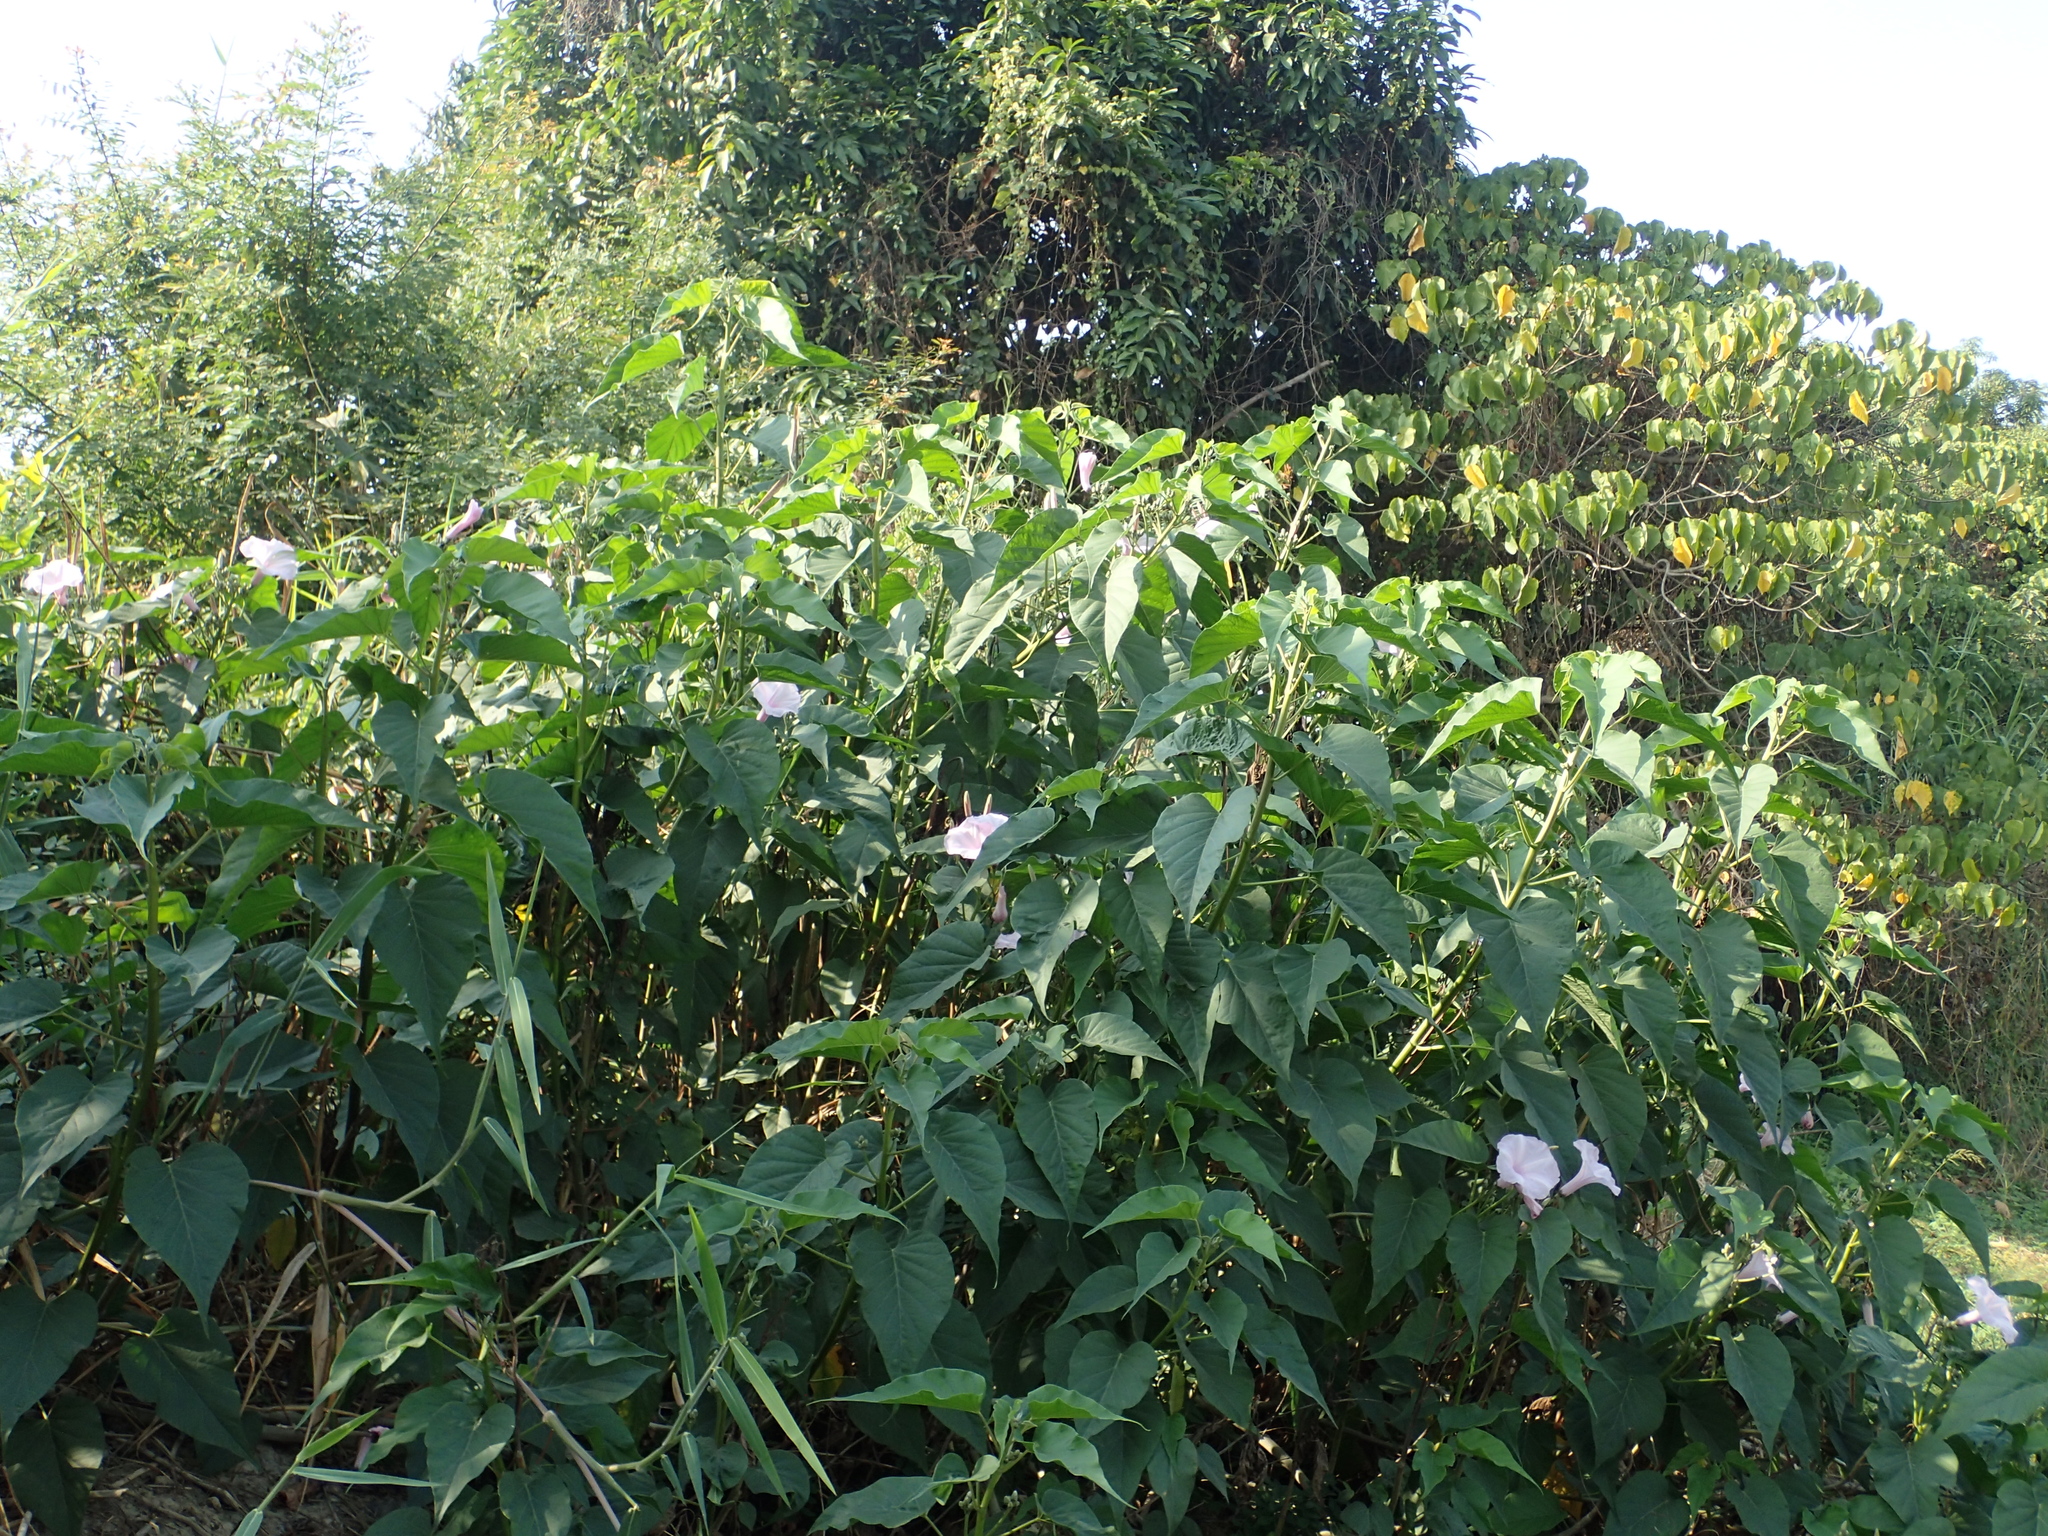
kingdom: Plantae
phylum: Tracheophyta
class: Magnoliopsida
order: Solanales
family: Convolvulaceae
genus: Ipomoea
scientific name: Ipomoea carnea
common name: Morning-glory
